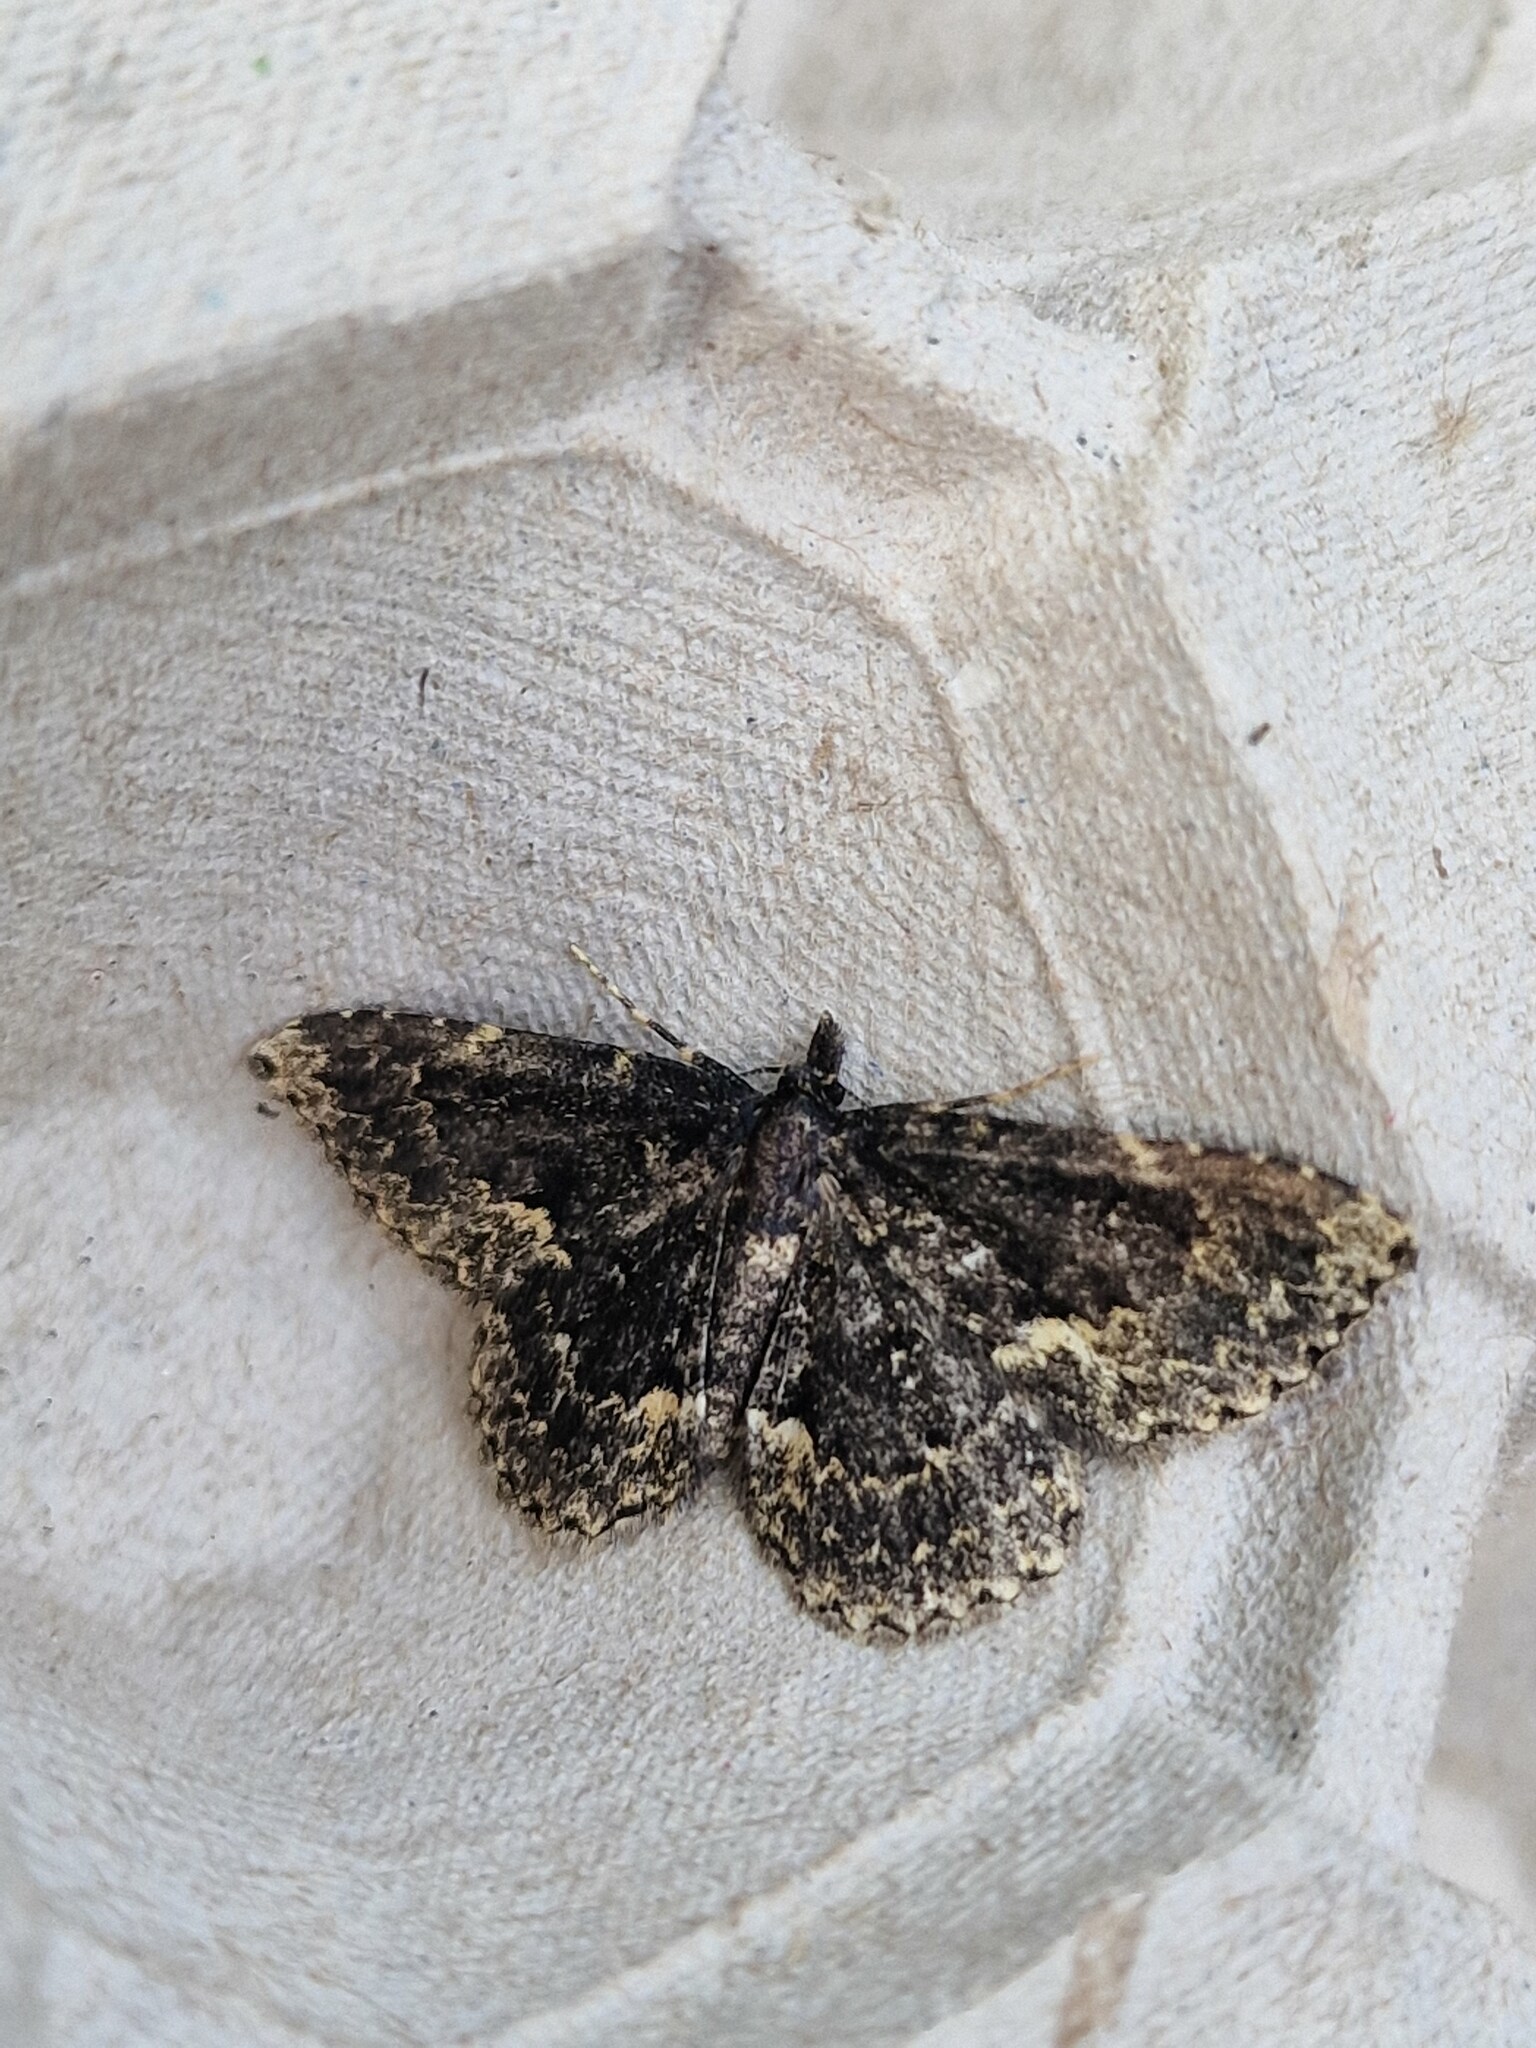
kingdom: Animalia
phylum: Arthropoda
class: Insecta
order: Lepidoptera
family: Erebidae
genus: Parascotia
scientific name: Parascotia fuliginaria
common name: Waved black
